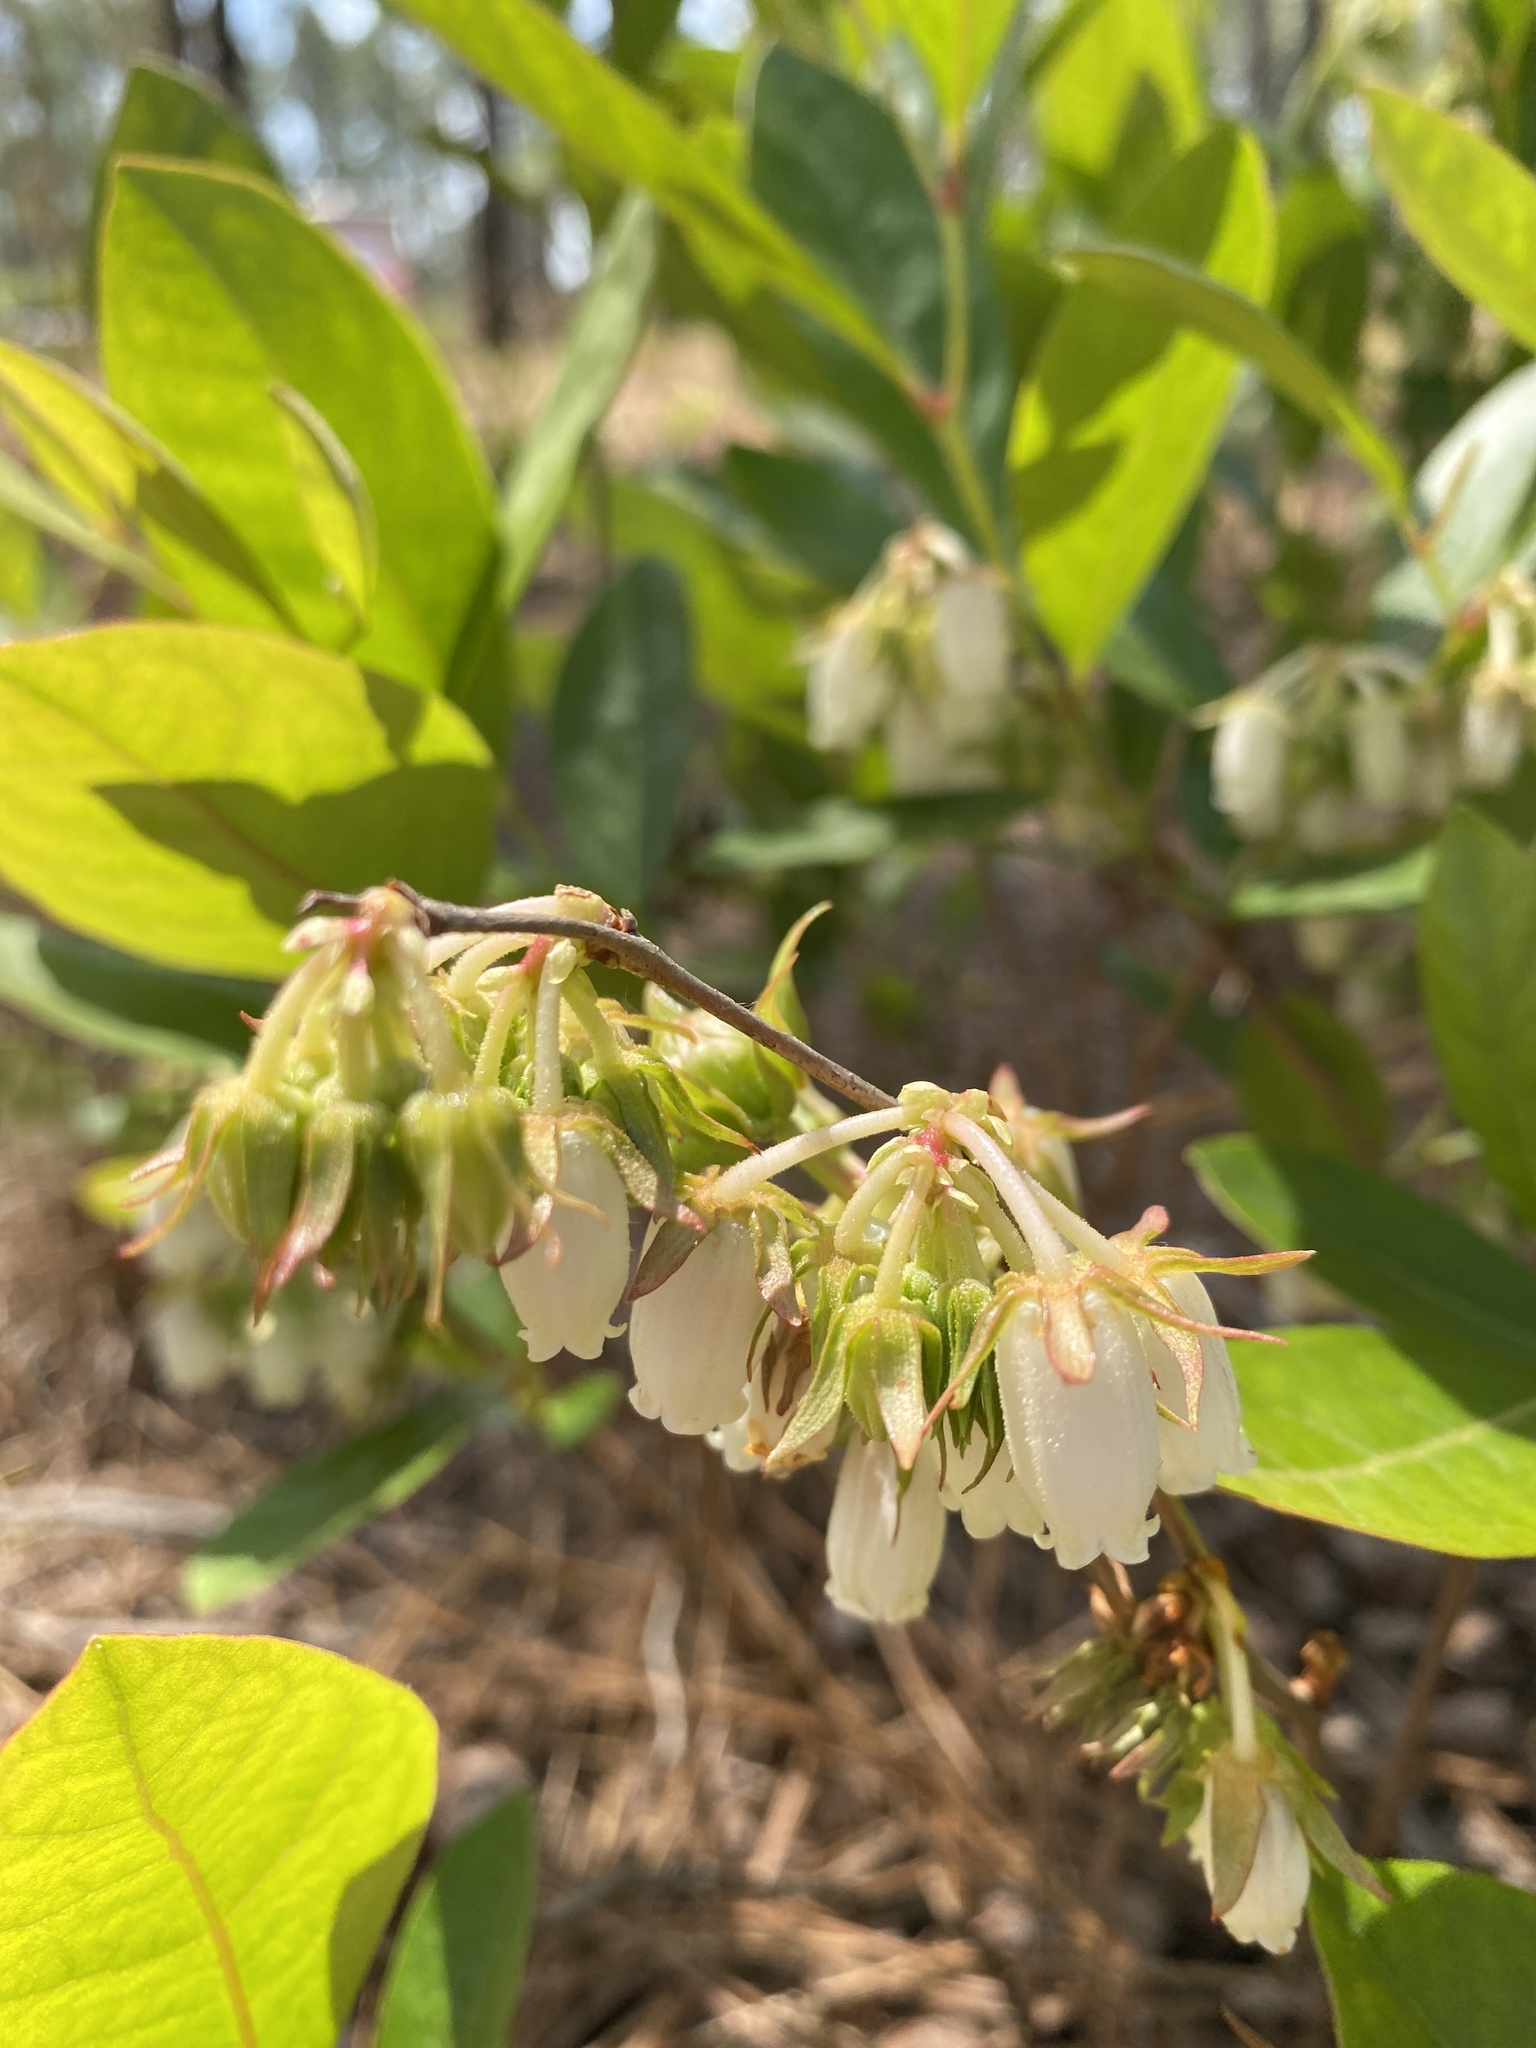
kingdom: Plantae
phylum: Tracheophyta
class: Magnoliopsida
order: Ericales
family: Ericaceae
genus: Lyonia
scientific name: Lyonia mariana
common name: Staggerbush
